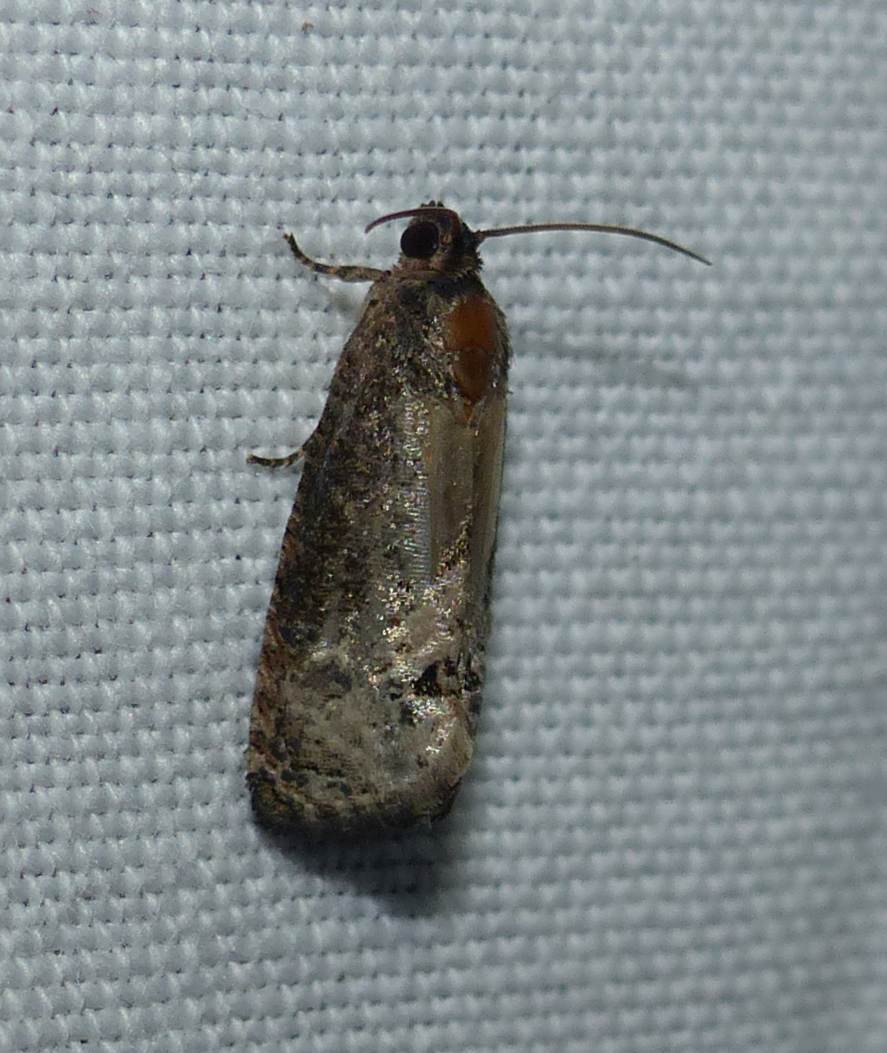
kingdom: Animalia
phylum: Arthropoda
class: Insecta
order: Lepidoptera
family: Tortricidae
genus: Ecdytolopha
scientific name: Ecdytolopha insiticiana
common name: Locust twig borer moth
